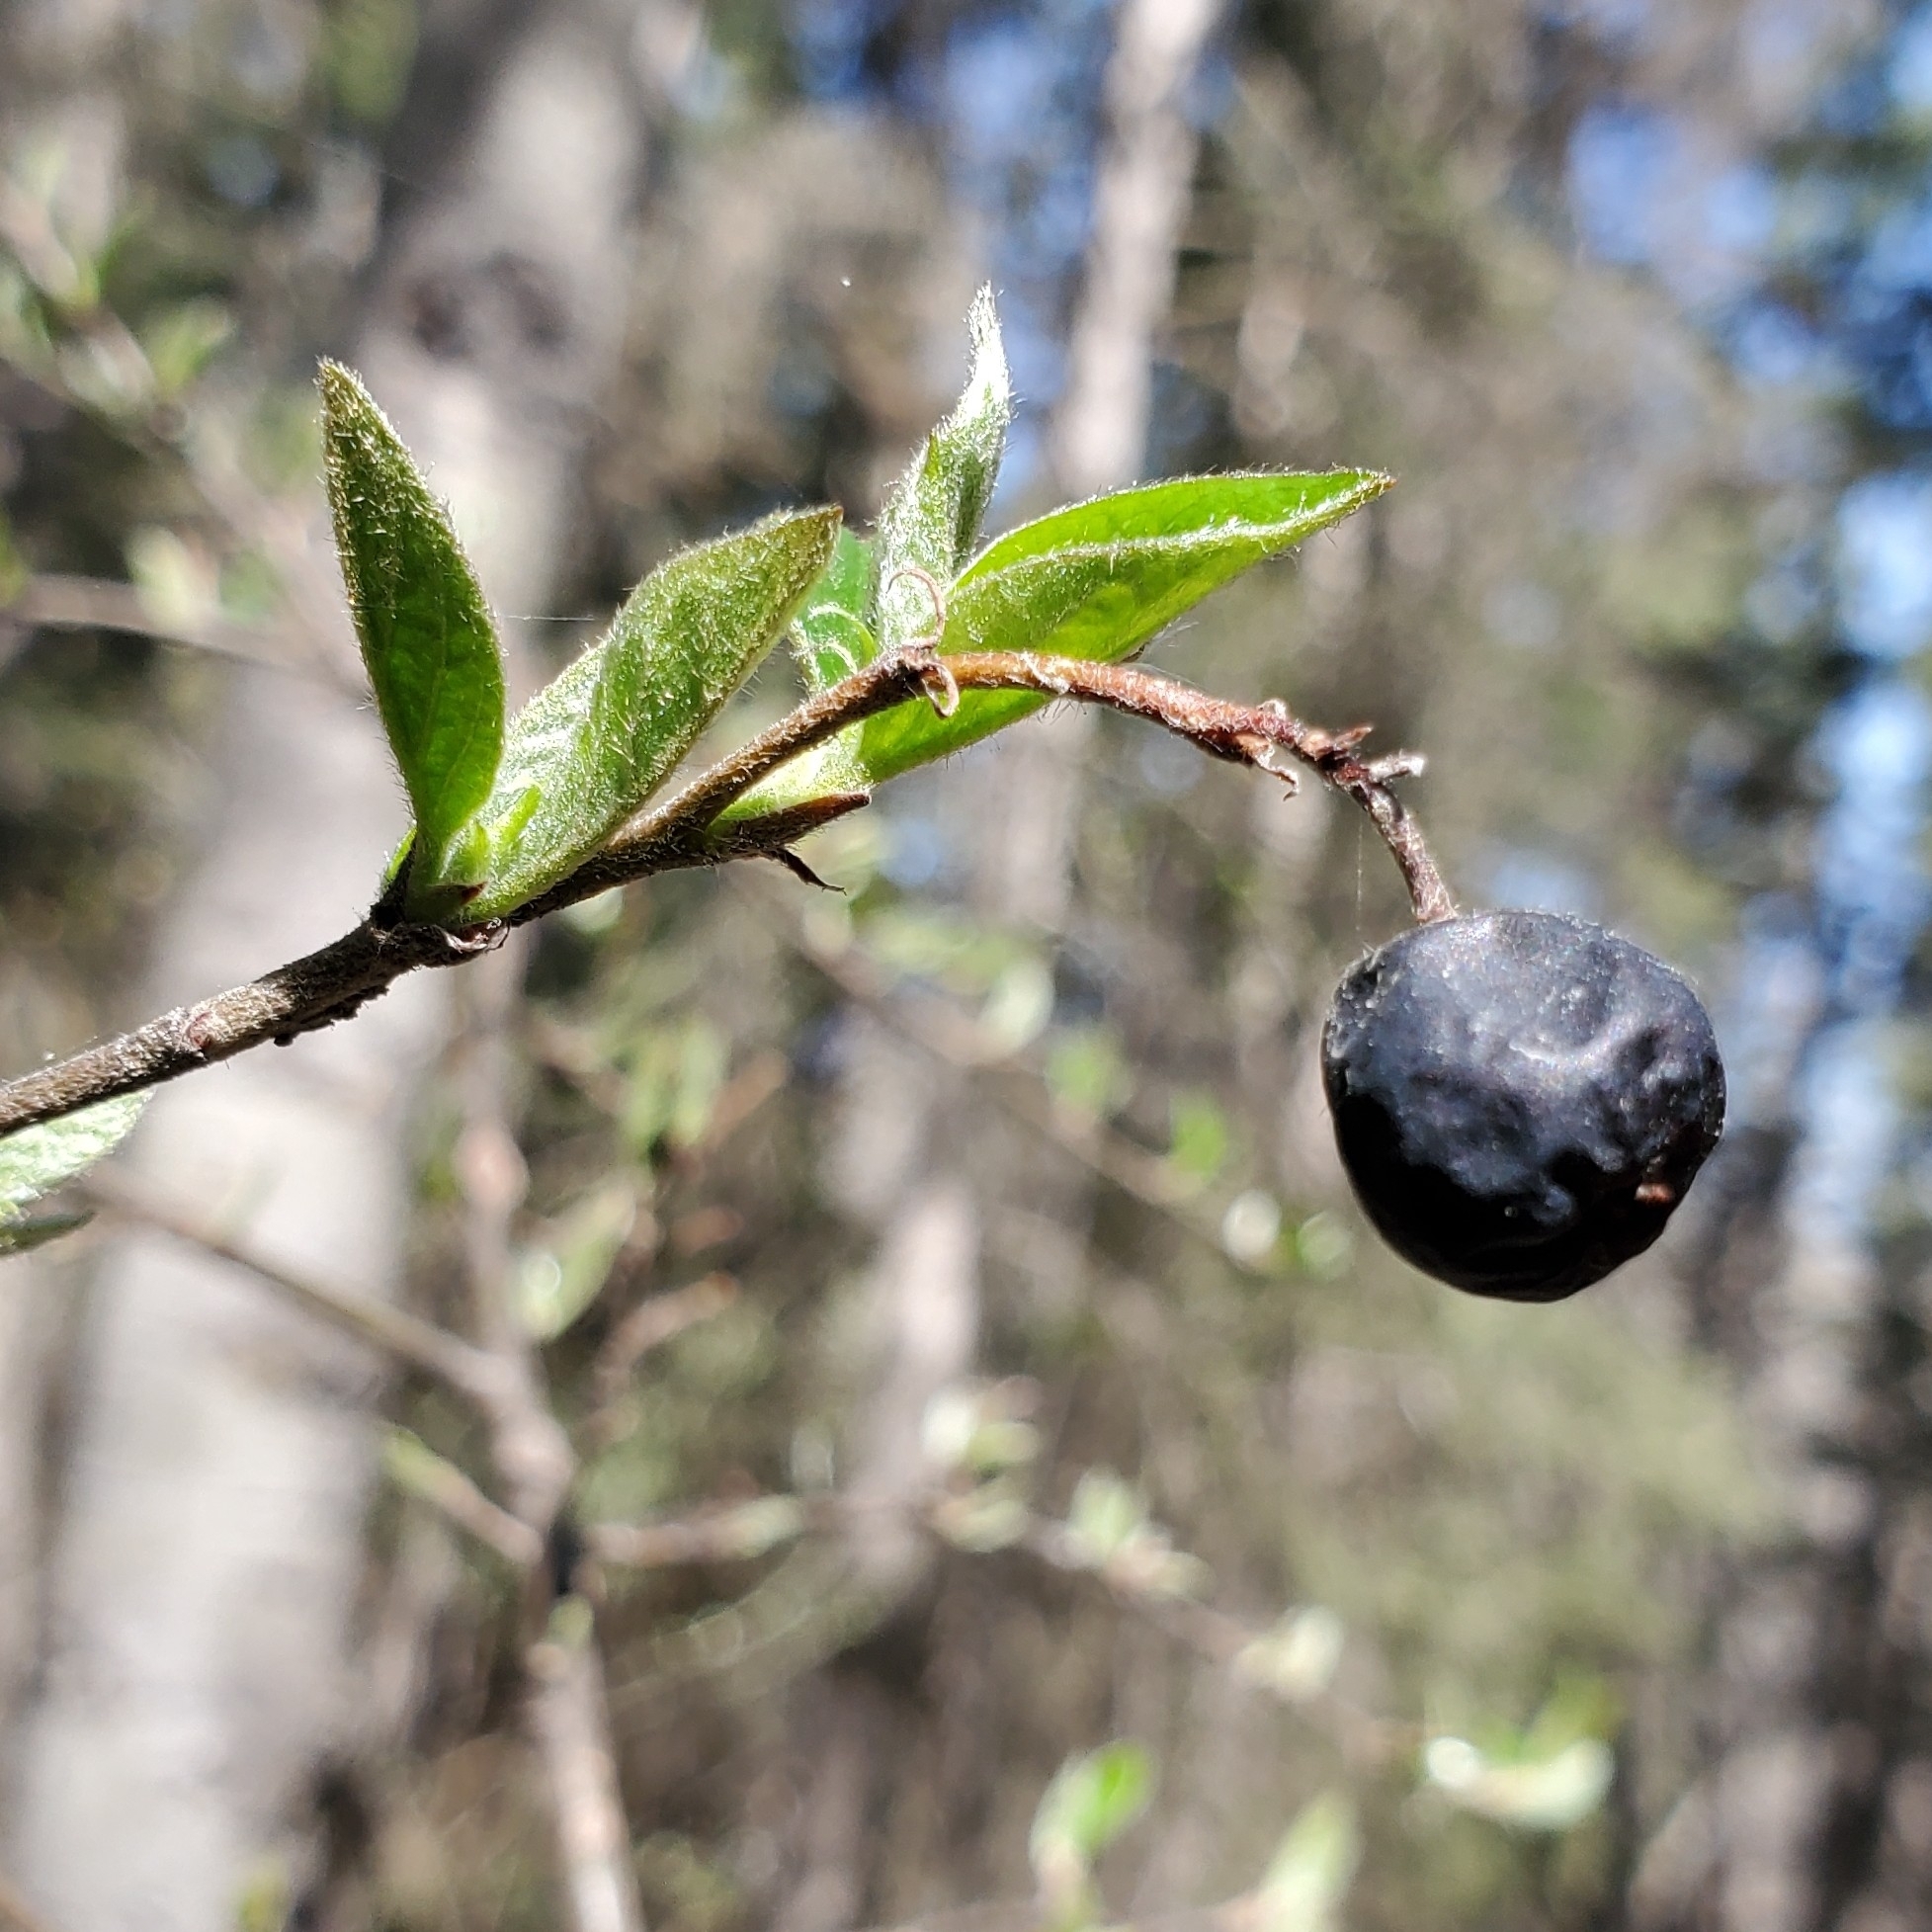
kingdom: Plantae
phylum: Tracheophyta
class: Magnoliopsida
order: Rosales
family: Rosaceae
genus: Cotoneaster
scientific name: Cotoneaster acutifolius
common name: Peking cotoneaster
